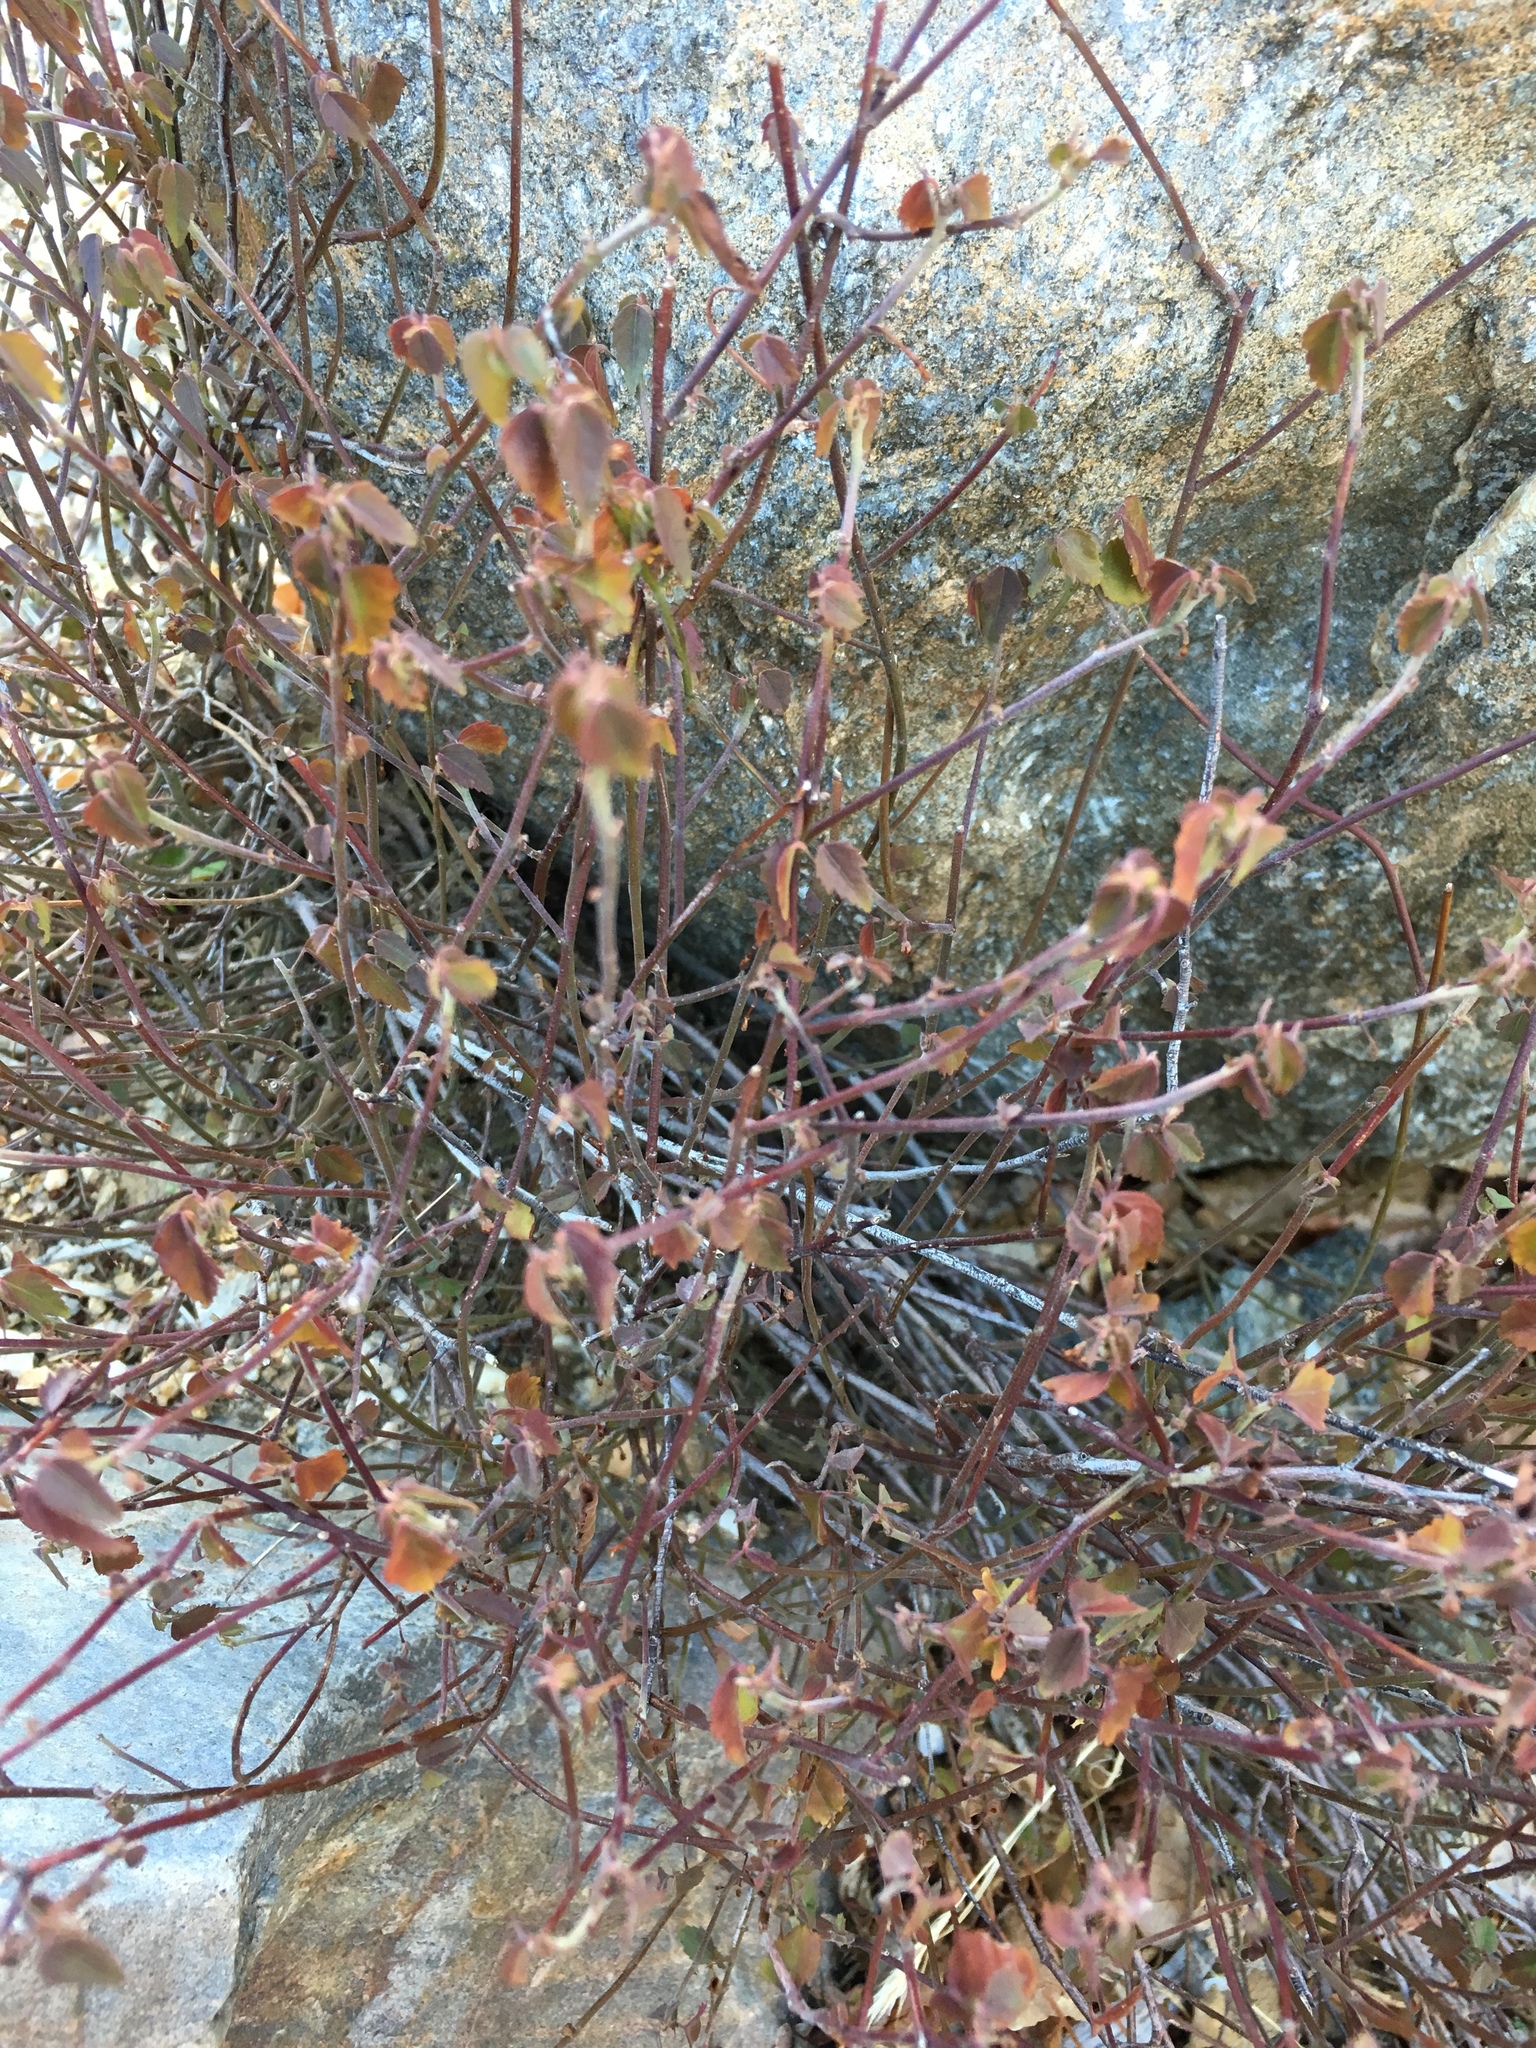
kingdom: Plantae
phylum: Tracheophyta
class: Magnoliopsida
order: Malvales
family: Malvaceae
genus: Ayenia
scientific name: Ayenia compacta
